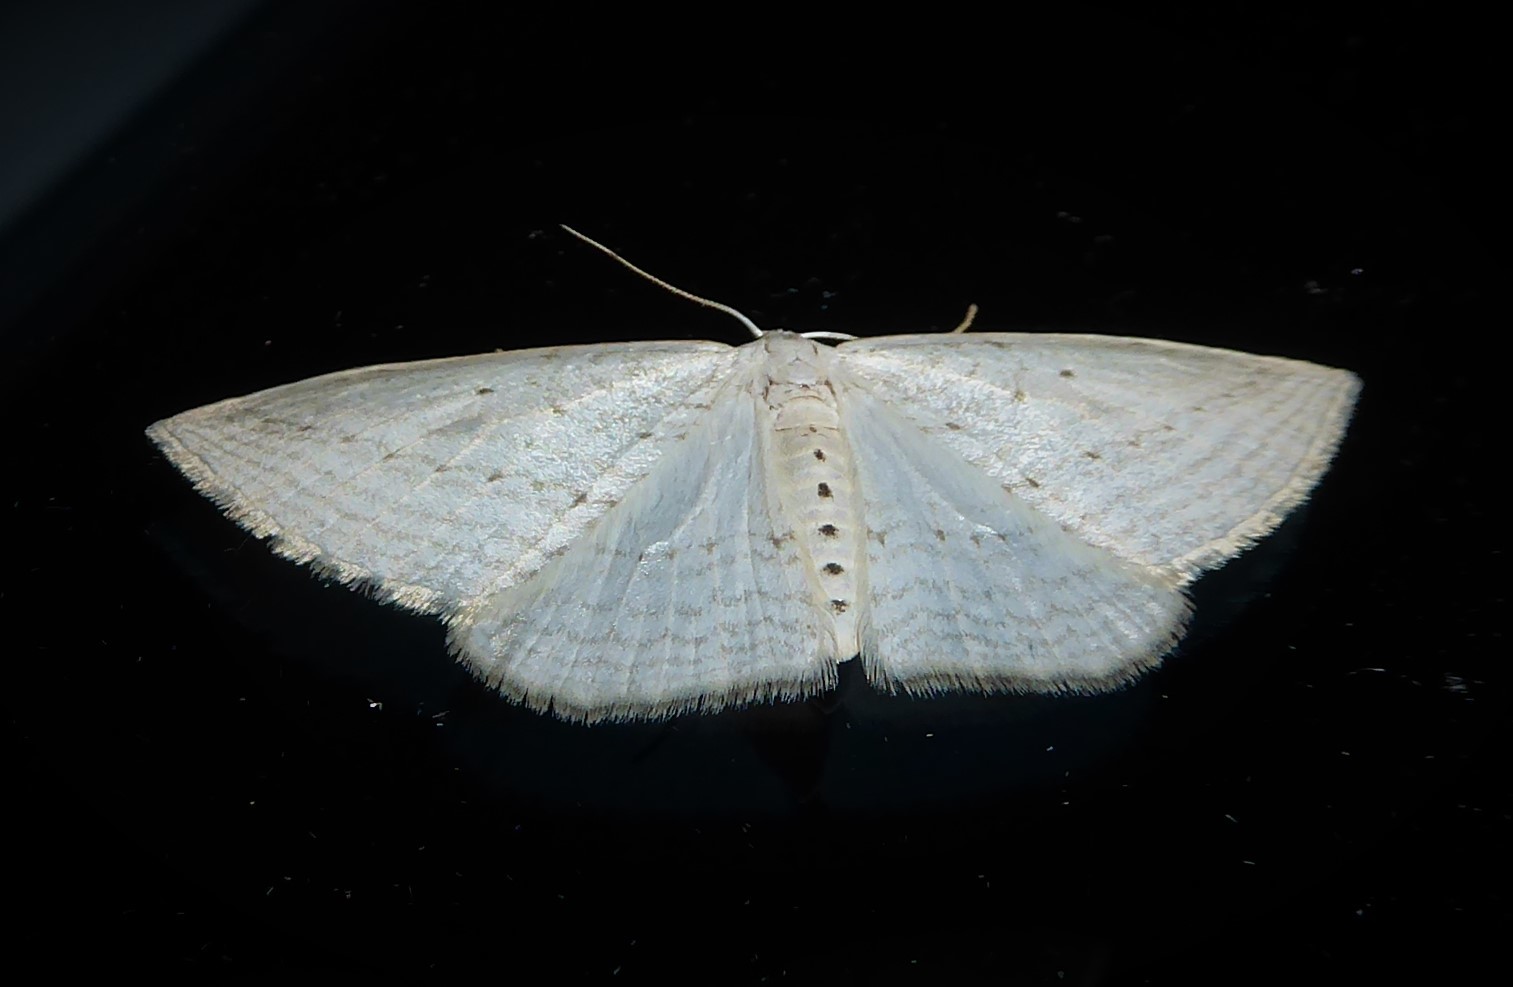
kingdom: Animalia
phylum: Arthropoda
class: Insecta
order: Lepidoptera
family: Geometridae
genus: Orthoclydon
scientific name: Orthoclydon praefectata
